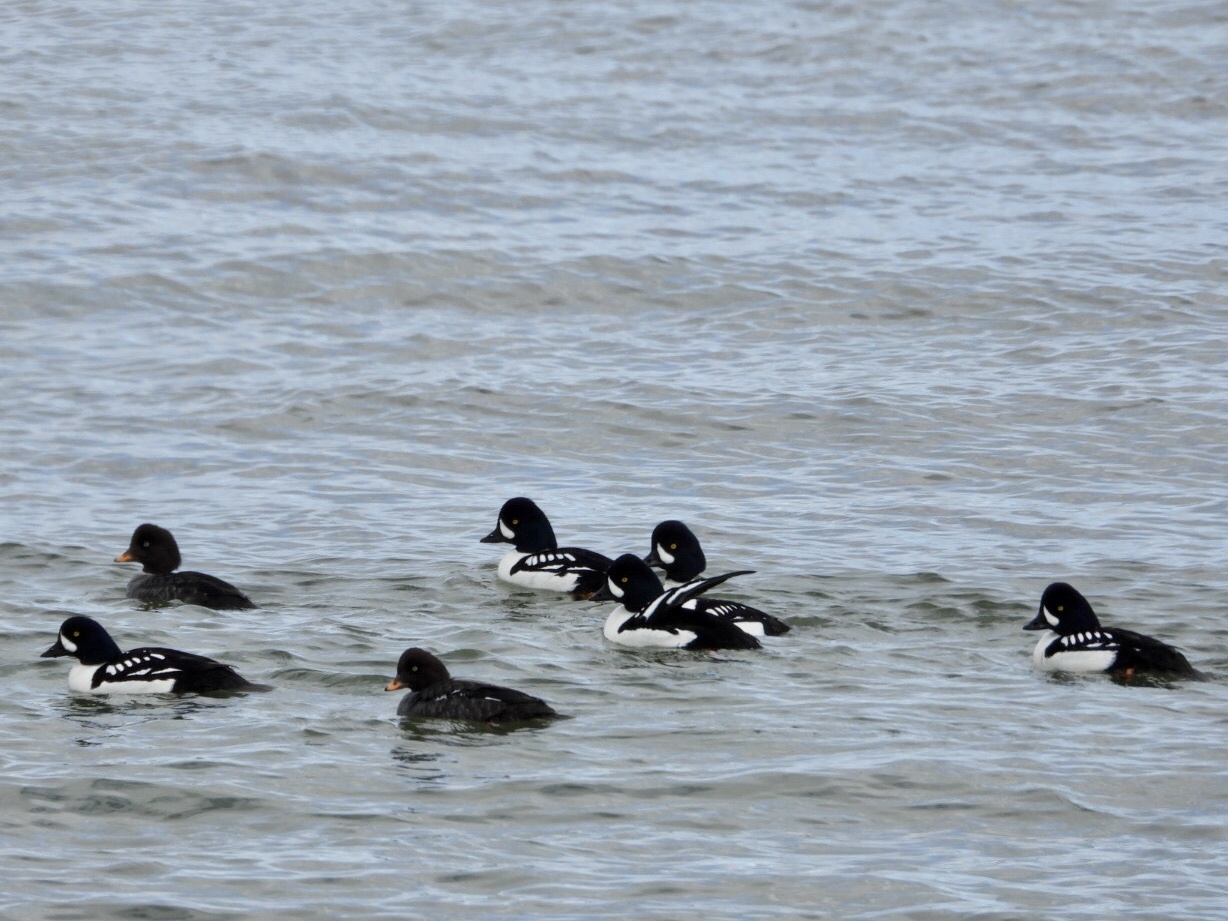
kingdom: Animalia
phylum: Chordata
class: Aves
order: Anseriformes
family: Anatidae
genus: Bucephala
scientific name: Bucephala islandica
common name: Barrow's goldeneye
